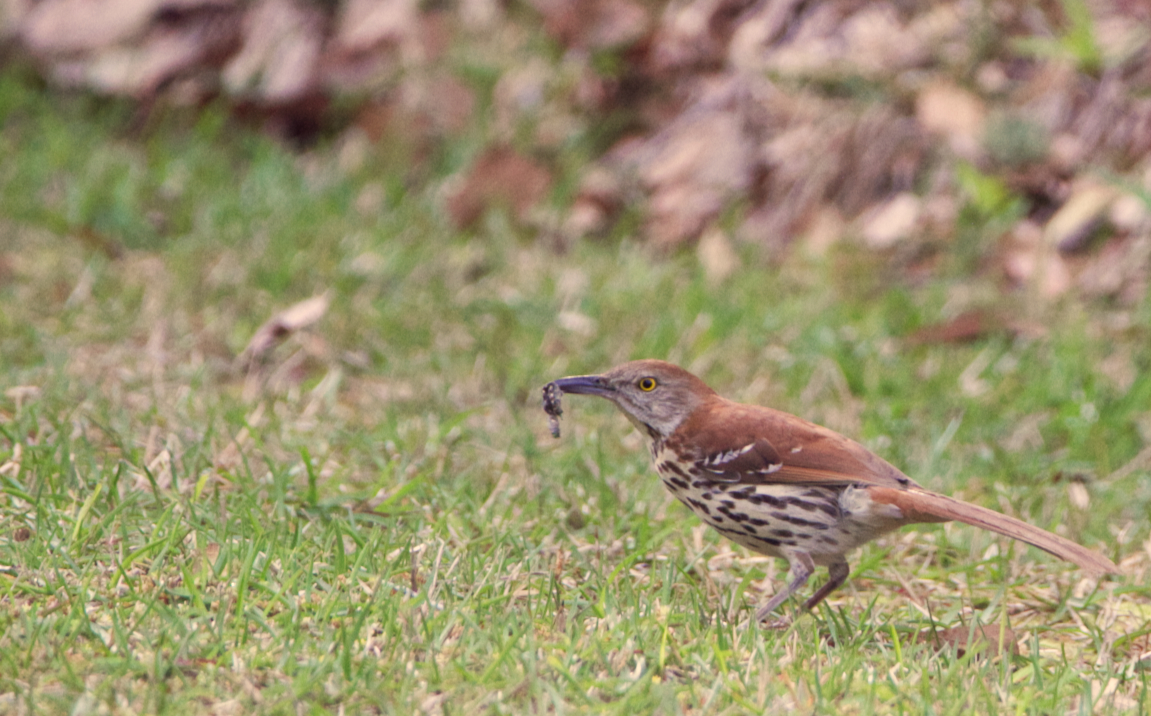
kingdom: Animalia
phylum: Chordata
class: Aves
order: Passeriformes
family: Mimidae
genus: Toxostoma
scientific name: Toxostoma rufum
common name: Brown thrasher
